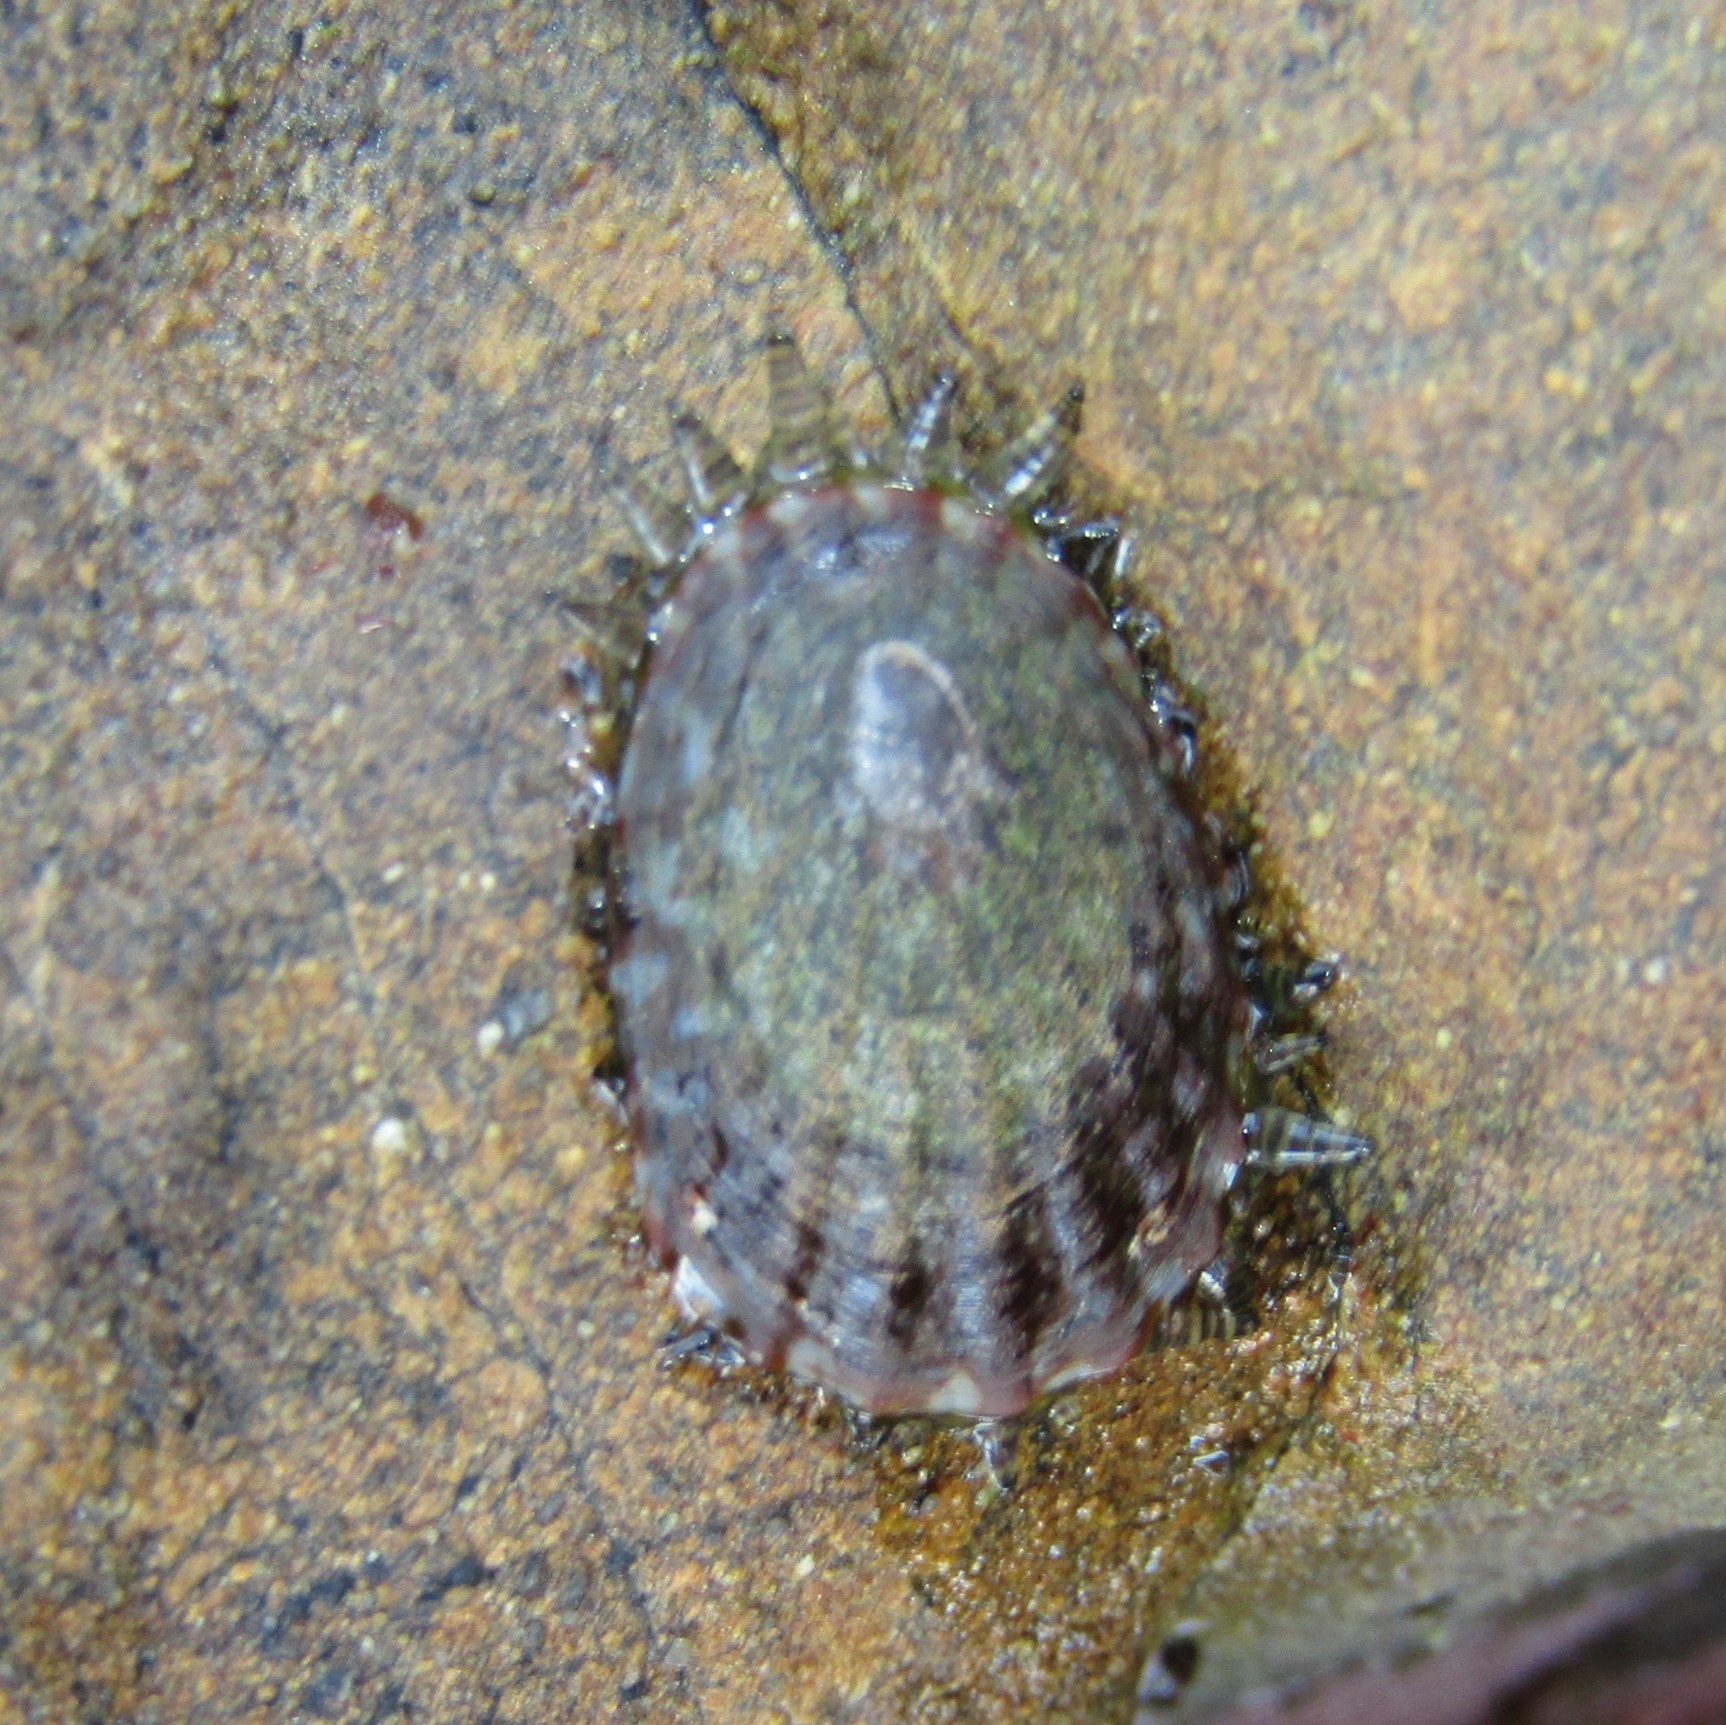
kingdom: Animalia
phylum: Mollusca
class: Gastropoda
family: Nacellidae
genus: Cellana
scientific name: Cellana denticulata
